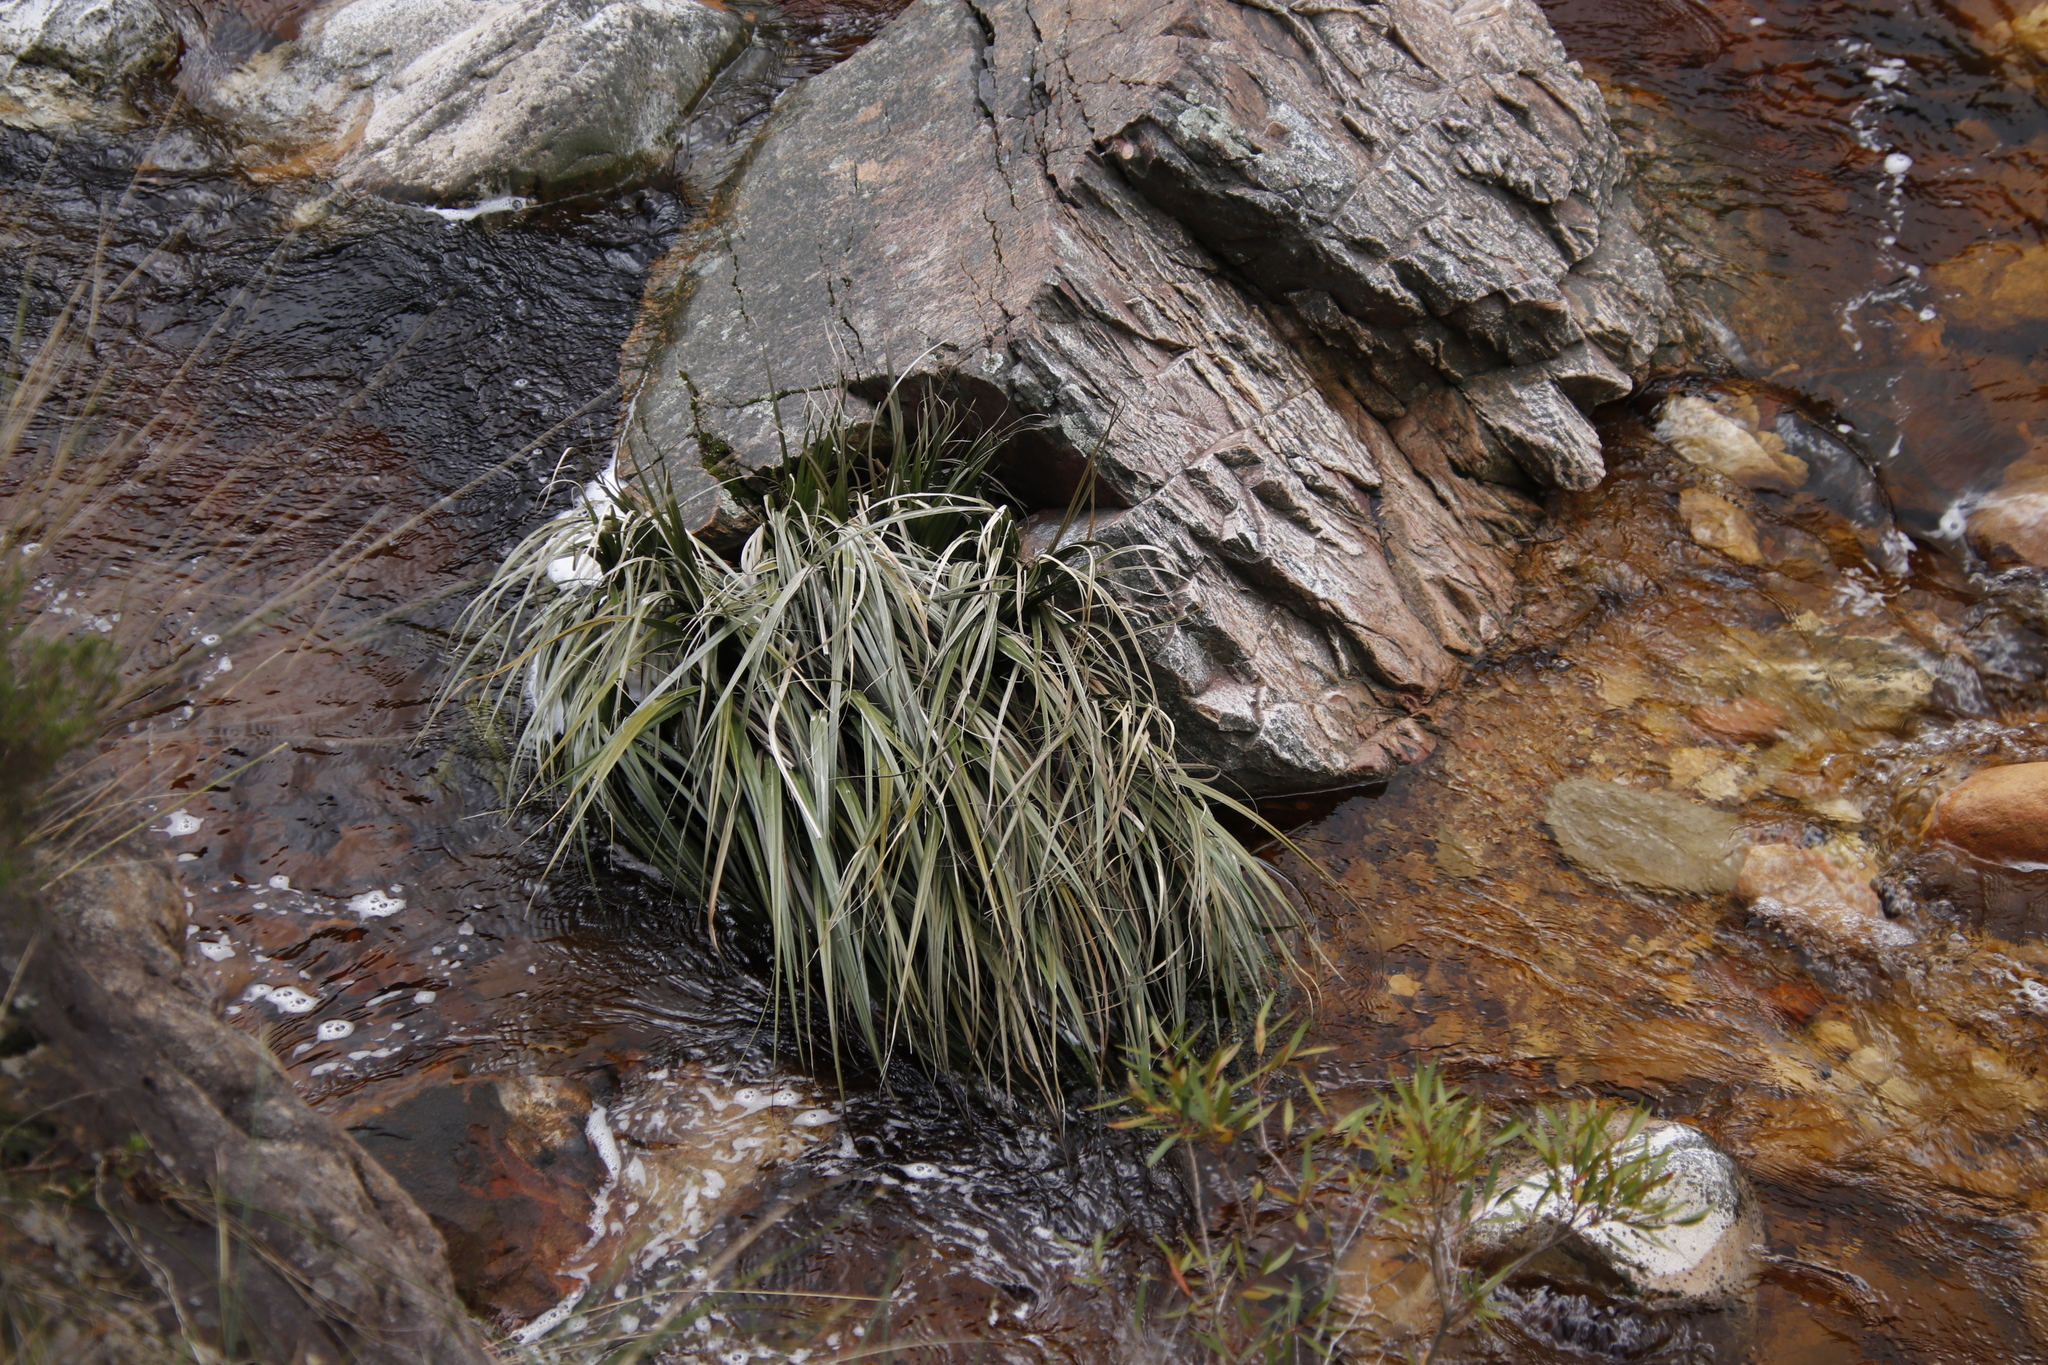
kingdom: Plantae
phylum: Tracheophyta
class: Liliopsida
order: Poales
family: Thurniaceae
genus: Prionium
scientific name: Prionium serratum
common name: Palmiet
